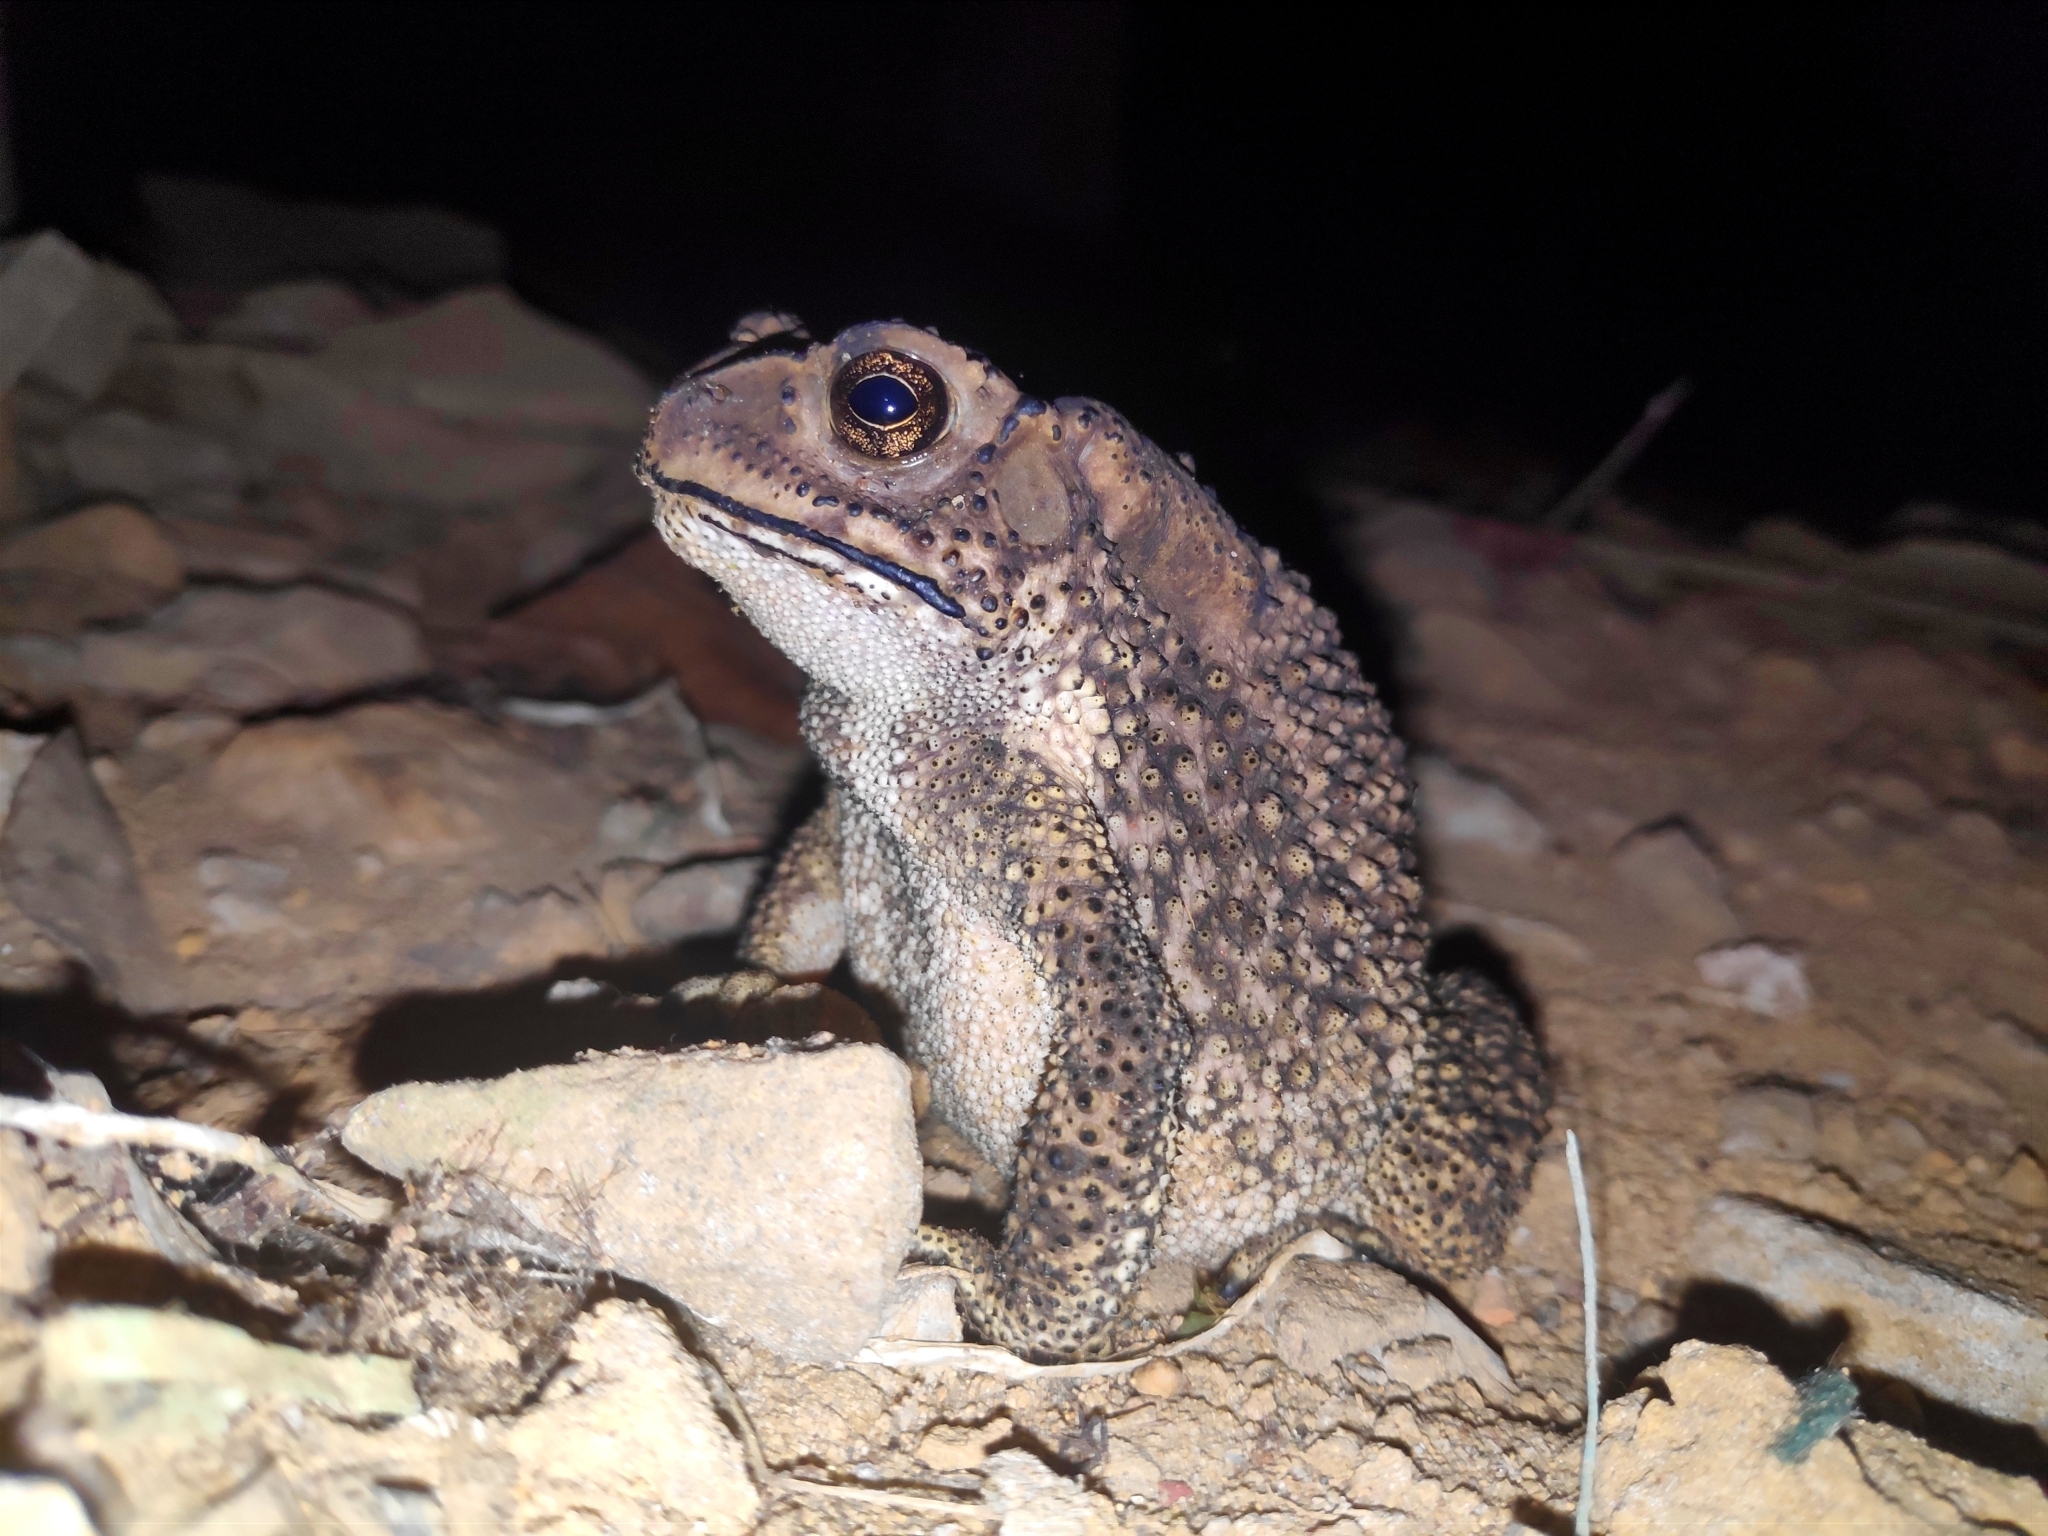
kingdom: Animalia
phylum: Chordata
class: Amphibia
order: Anura
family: Bufonidae
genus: Duttaphrynus
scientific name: Duttaphrynus melanostictus
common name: Common sunda toad
